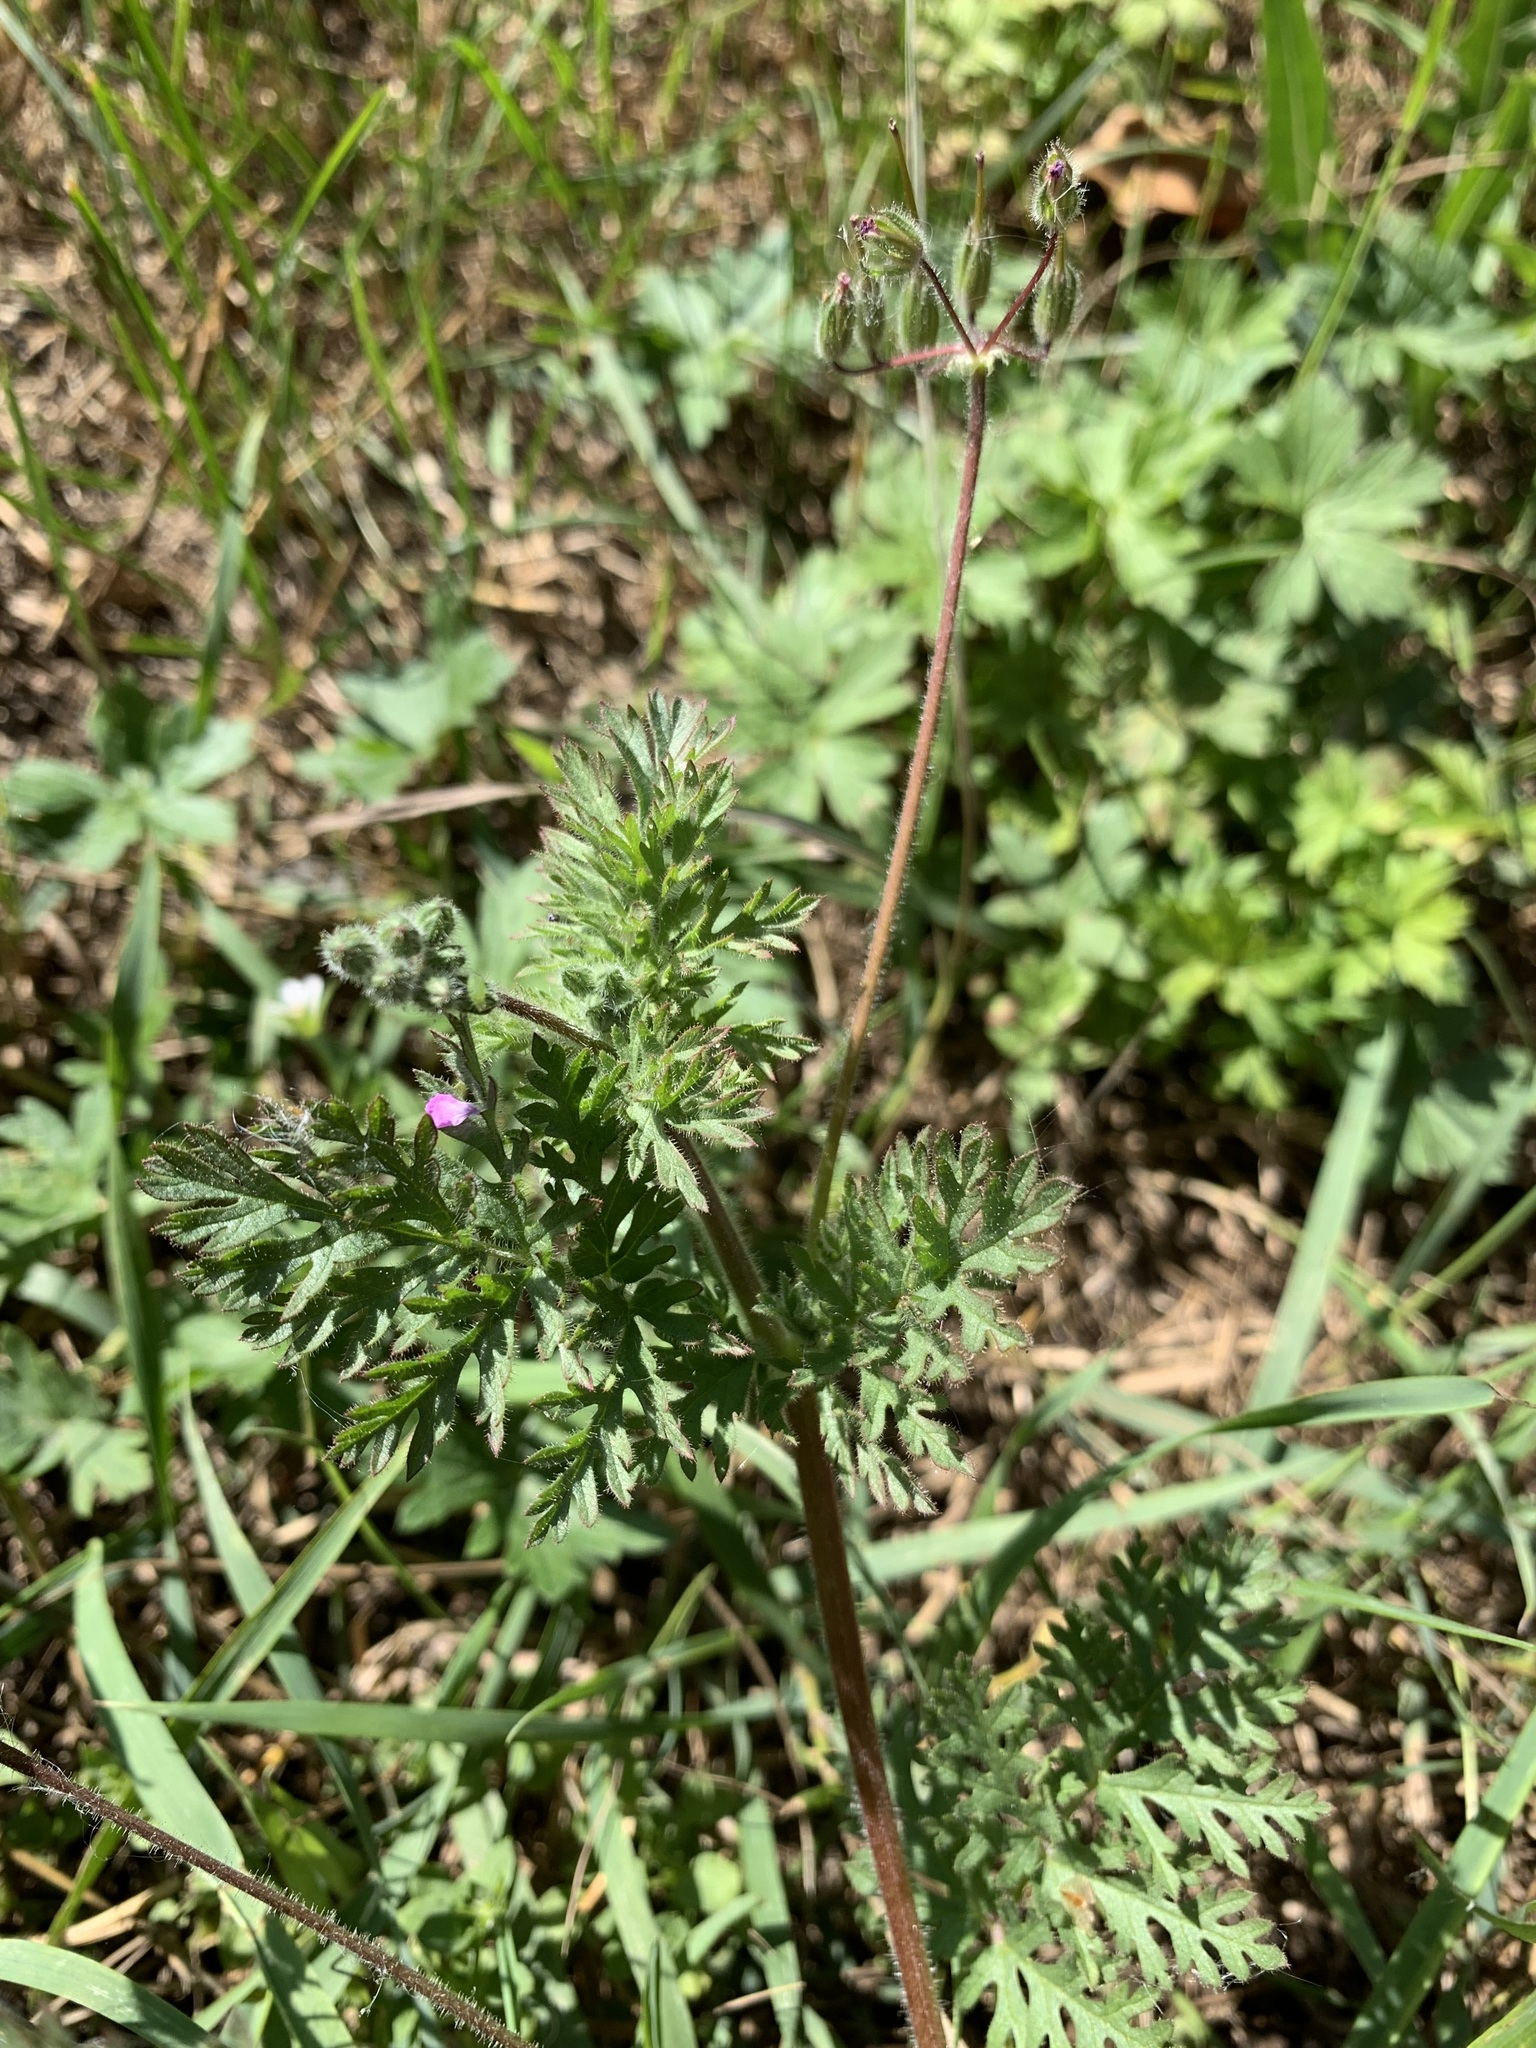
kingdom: Plantae
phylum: Tracheophyta
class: Magnoliopsida
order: Geraniales
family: Geraniaceae
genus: Erodium
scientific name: Erodium cicutarium
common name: Common stork's-bill
